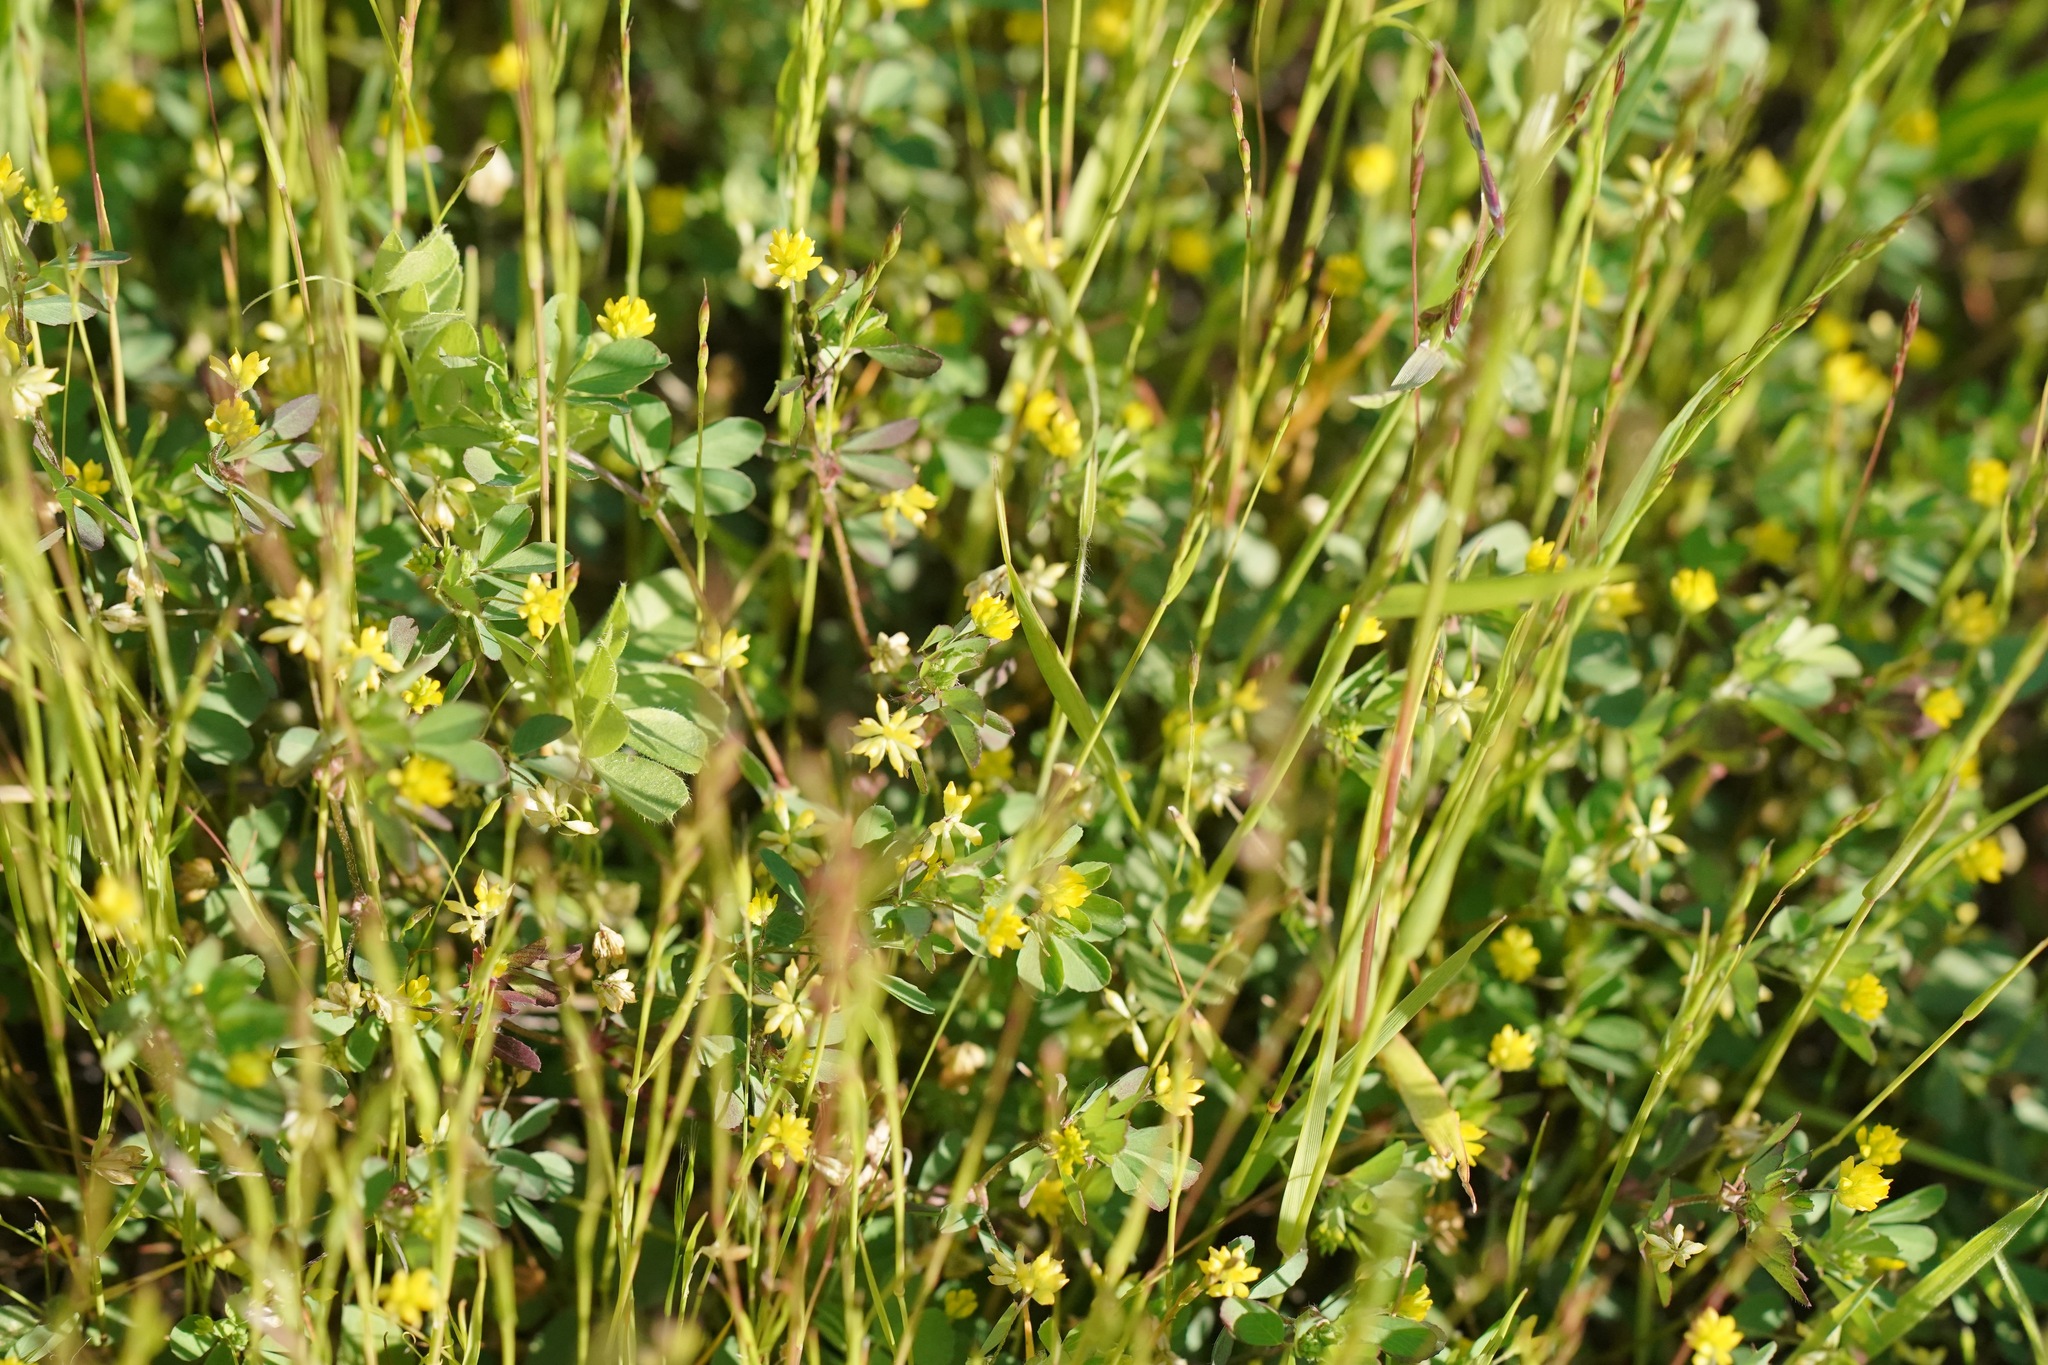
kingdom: Plantae
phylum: Tracheophyta
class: Magnoliopsida
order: Fabales
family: Fabaceae
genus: Trifolium
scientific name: Trifolium dubium
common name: Suckling clover
